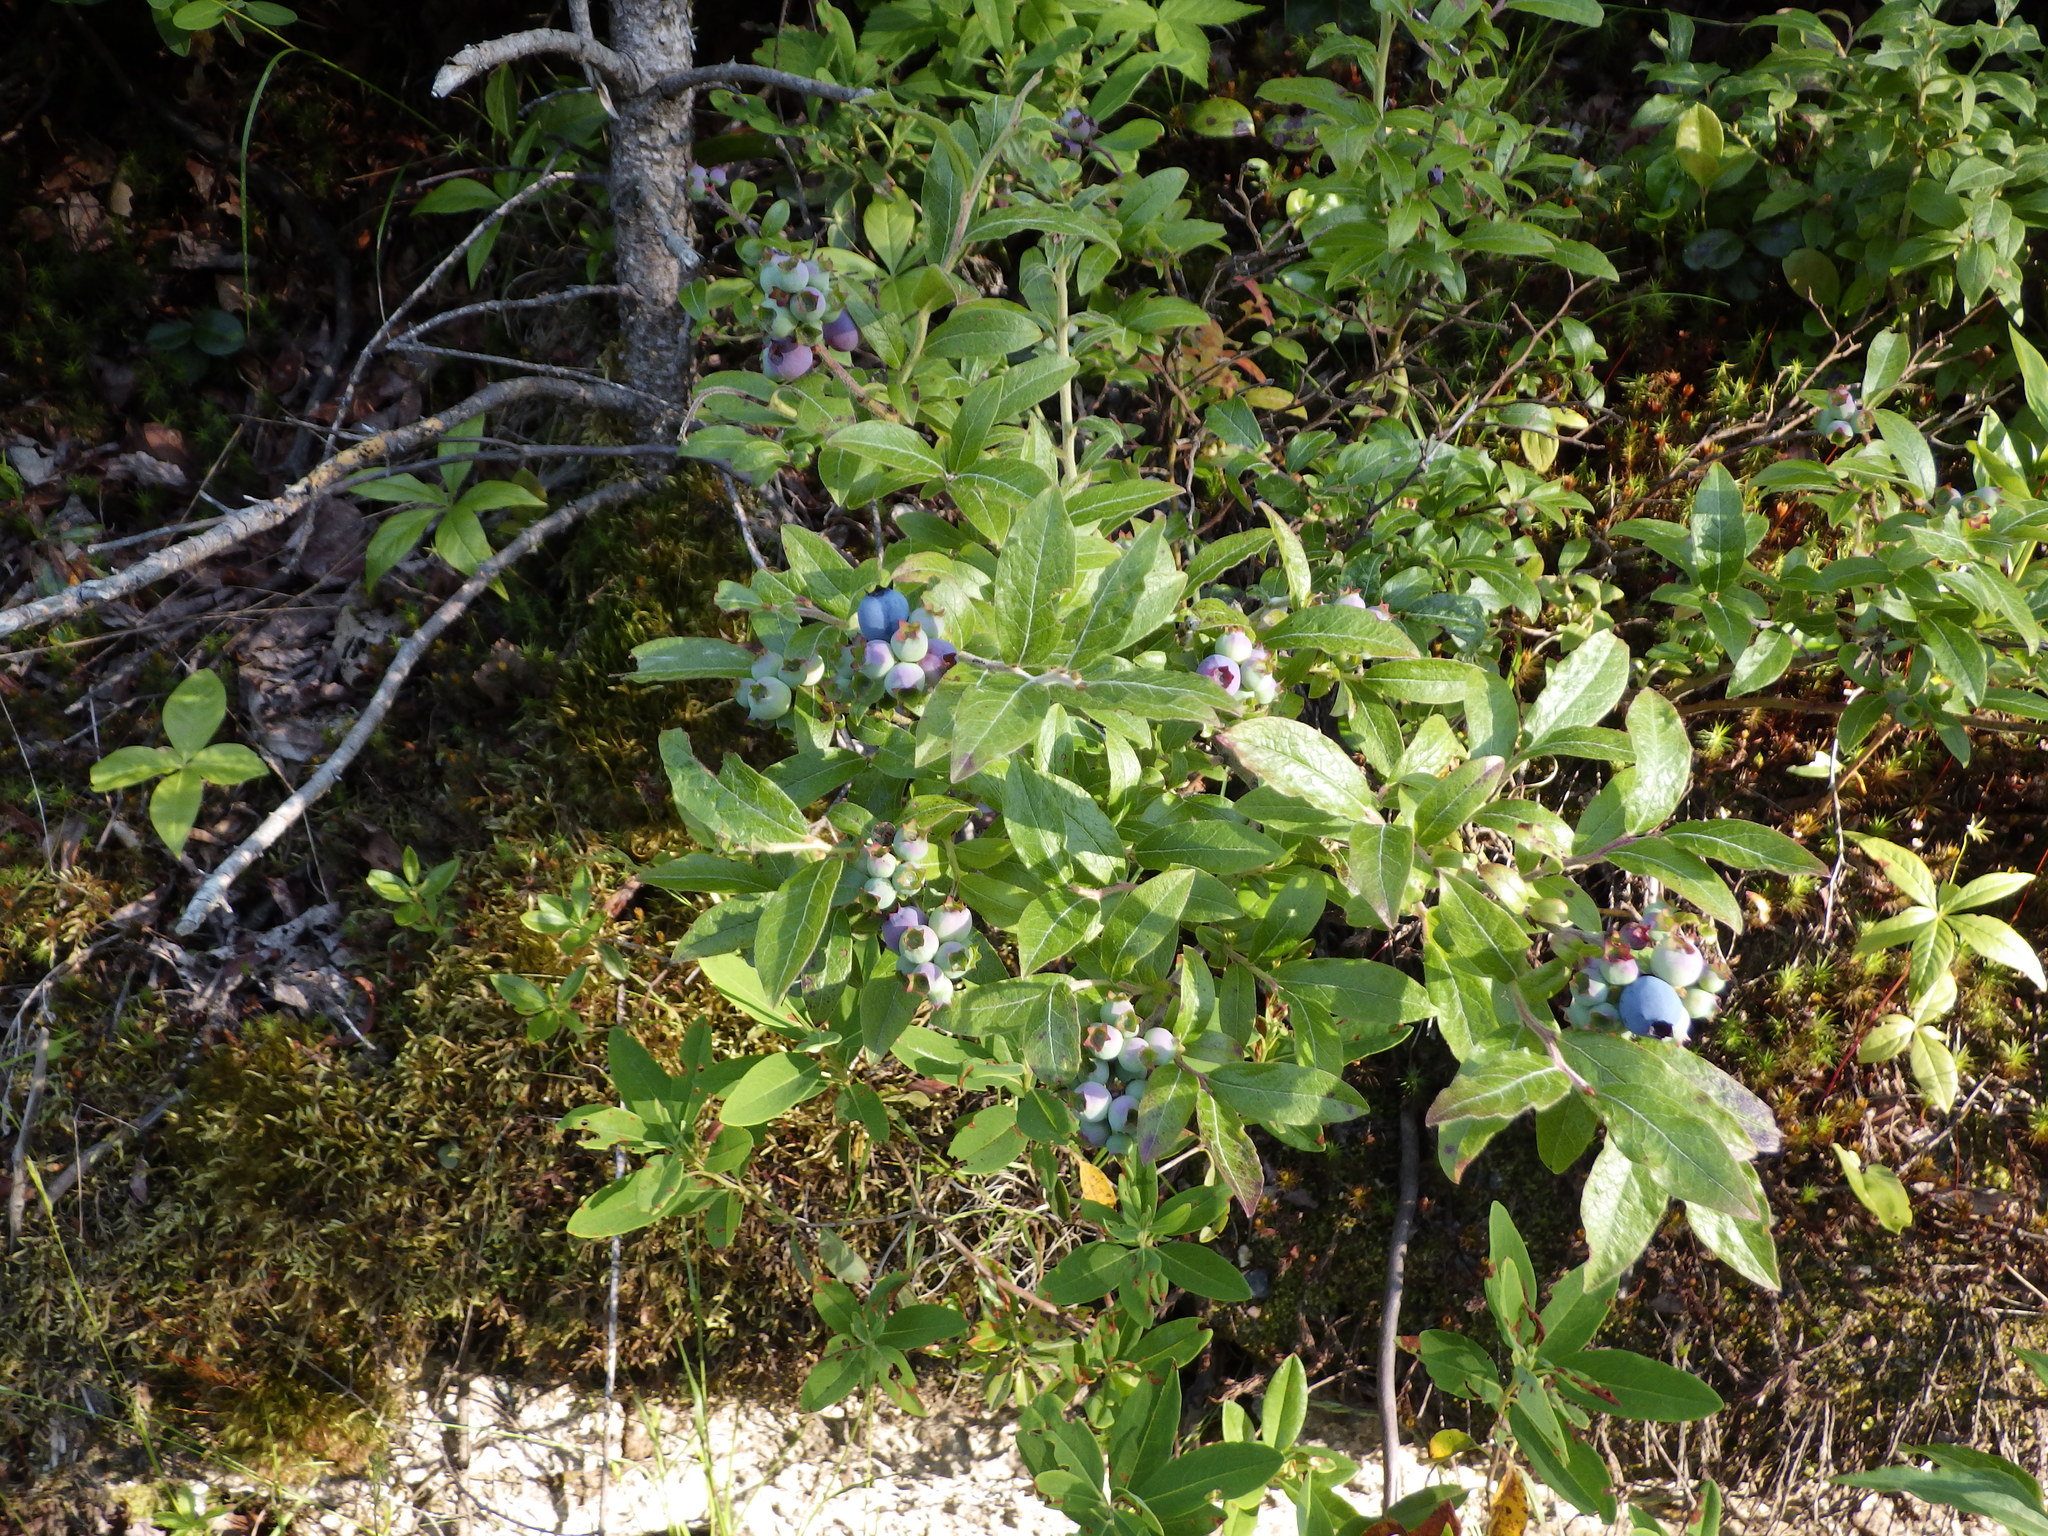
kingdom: Plantae
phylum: Tracheophyta
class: Magnoliopsida
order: Ericales
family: Ericaceae
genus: Vaccinium
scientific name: Vaccinium angustifolium
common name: Early lowbush blueberry
